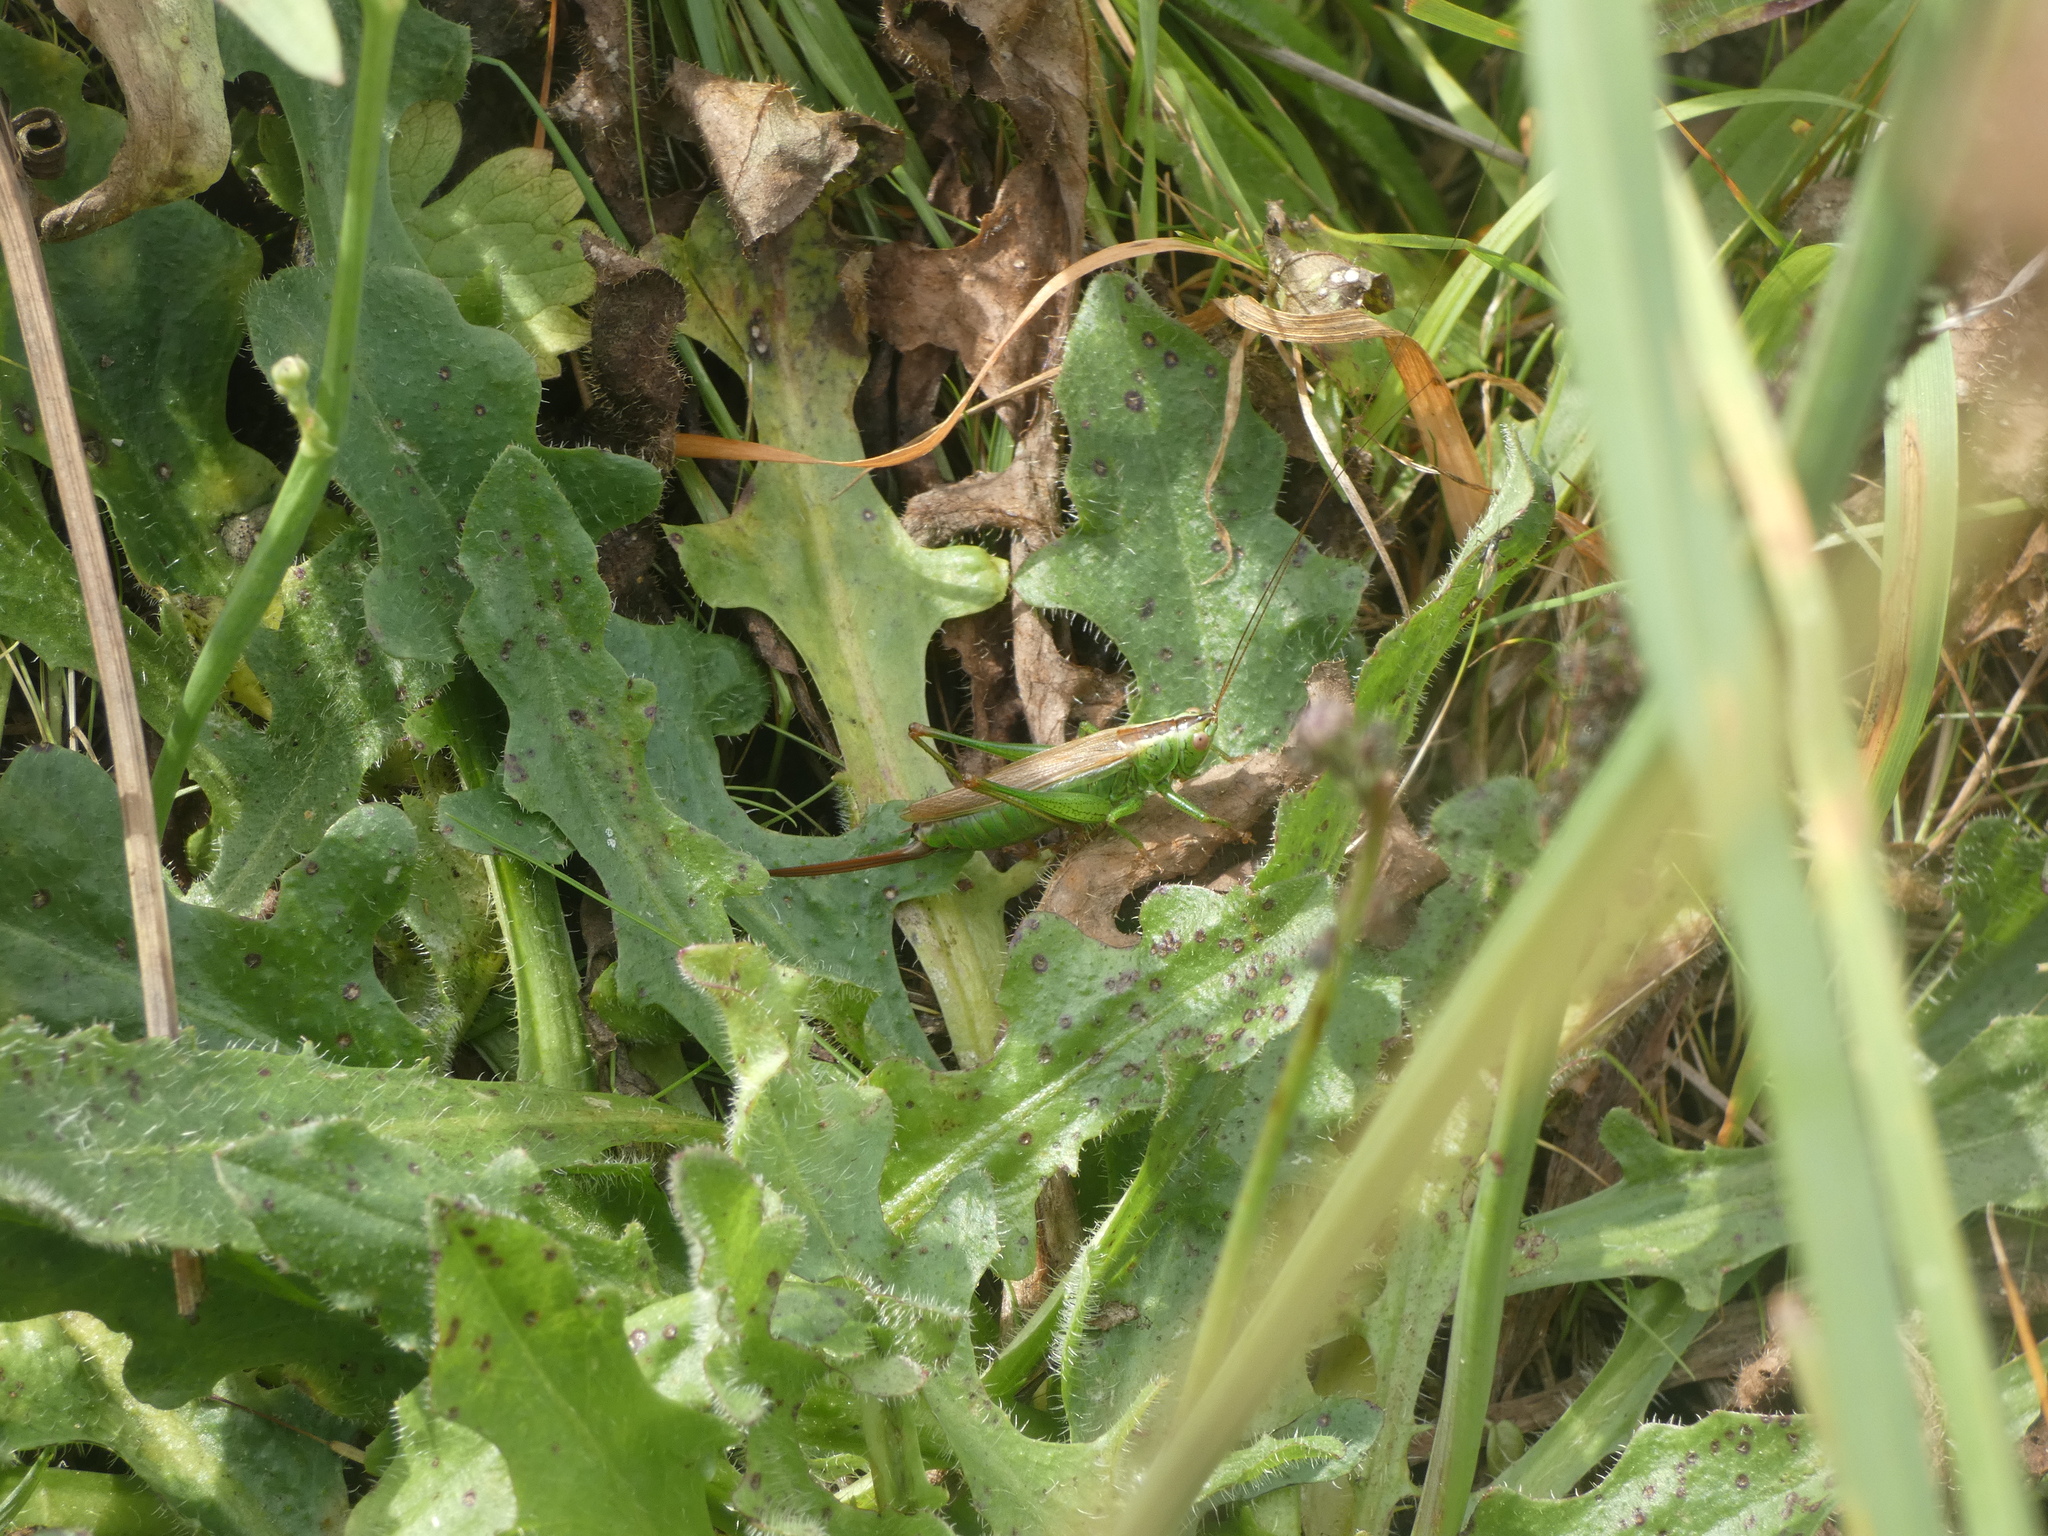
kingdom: Animalia
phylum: Arthropoda
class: Insecta
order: Orthoptera
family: Tettigoniidae
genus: Conocephalus
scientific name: Conocephalus fuscus
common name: Long-winged conehead
